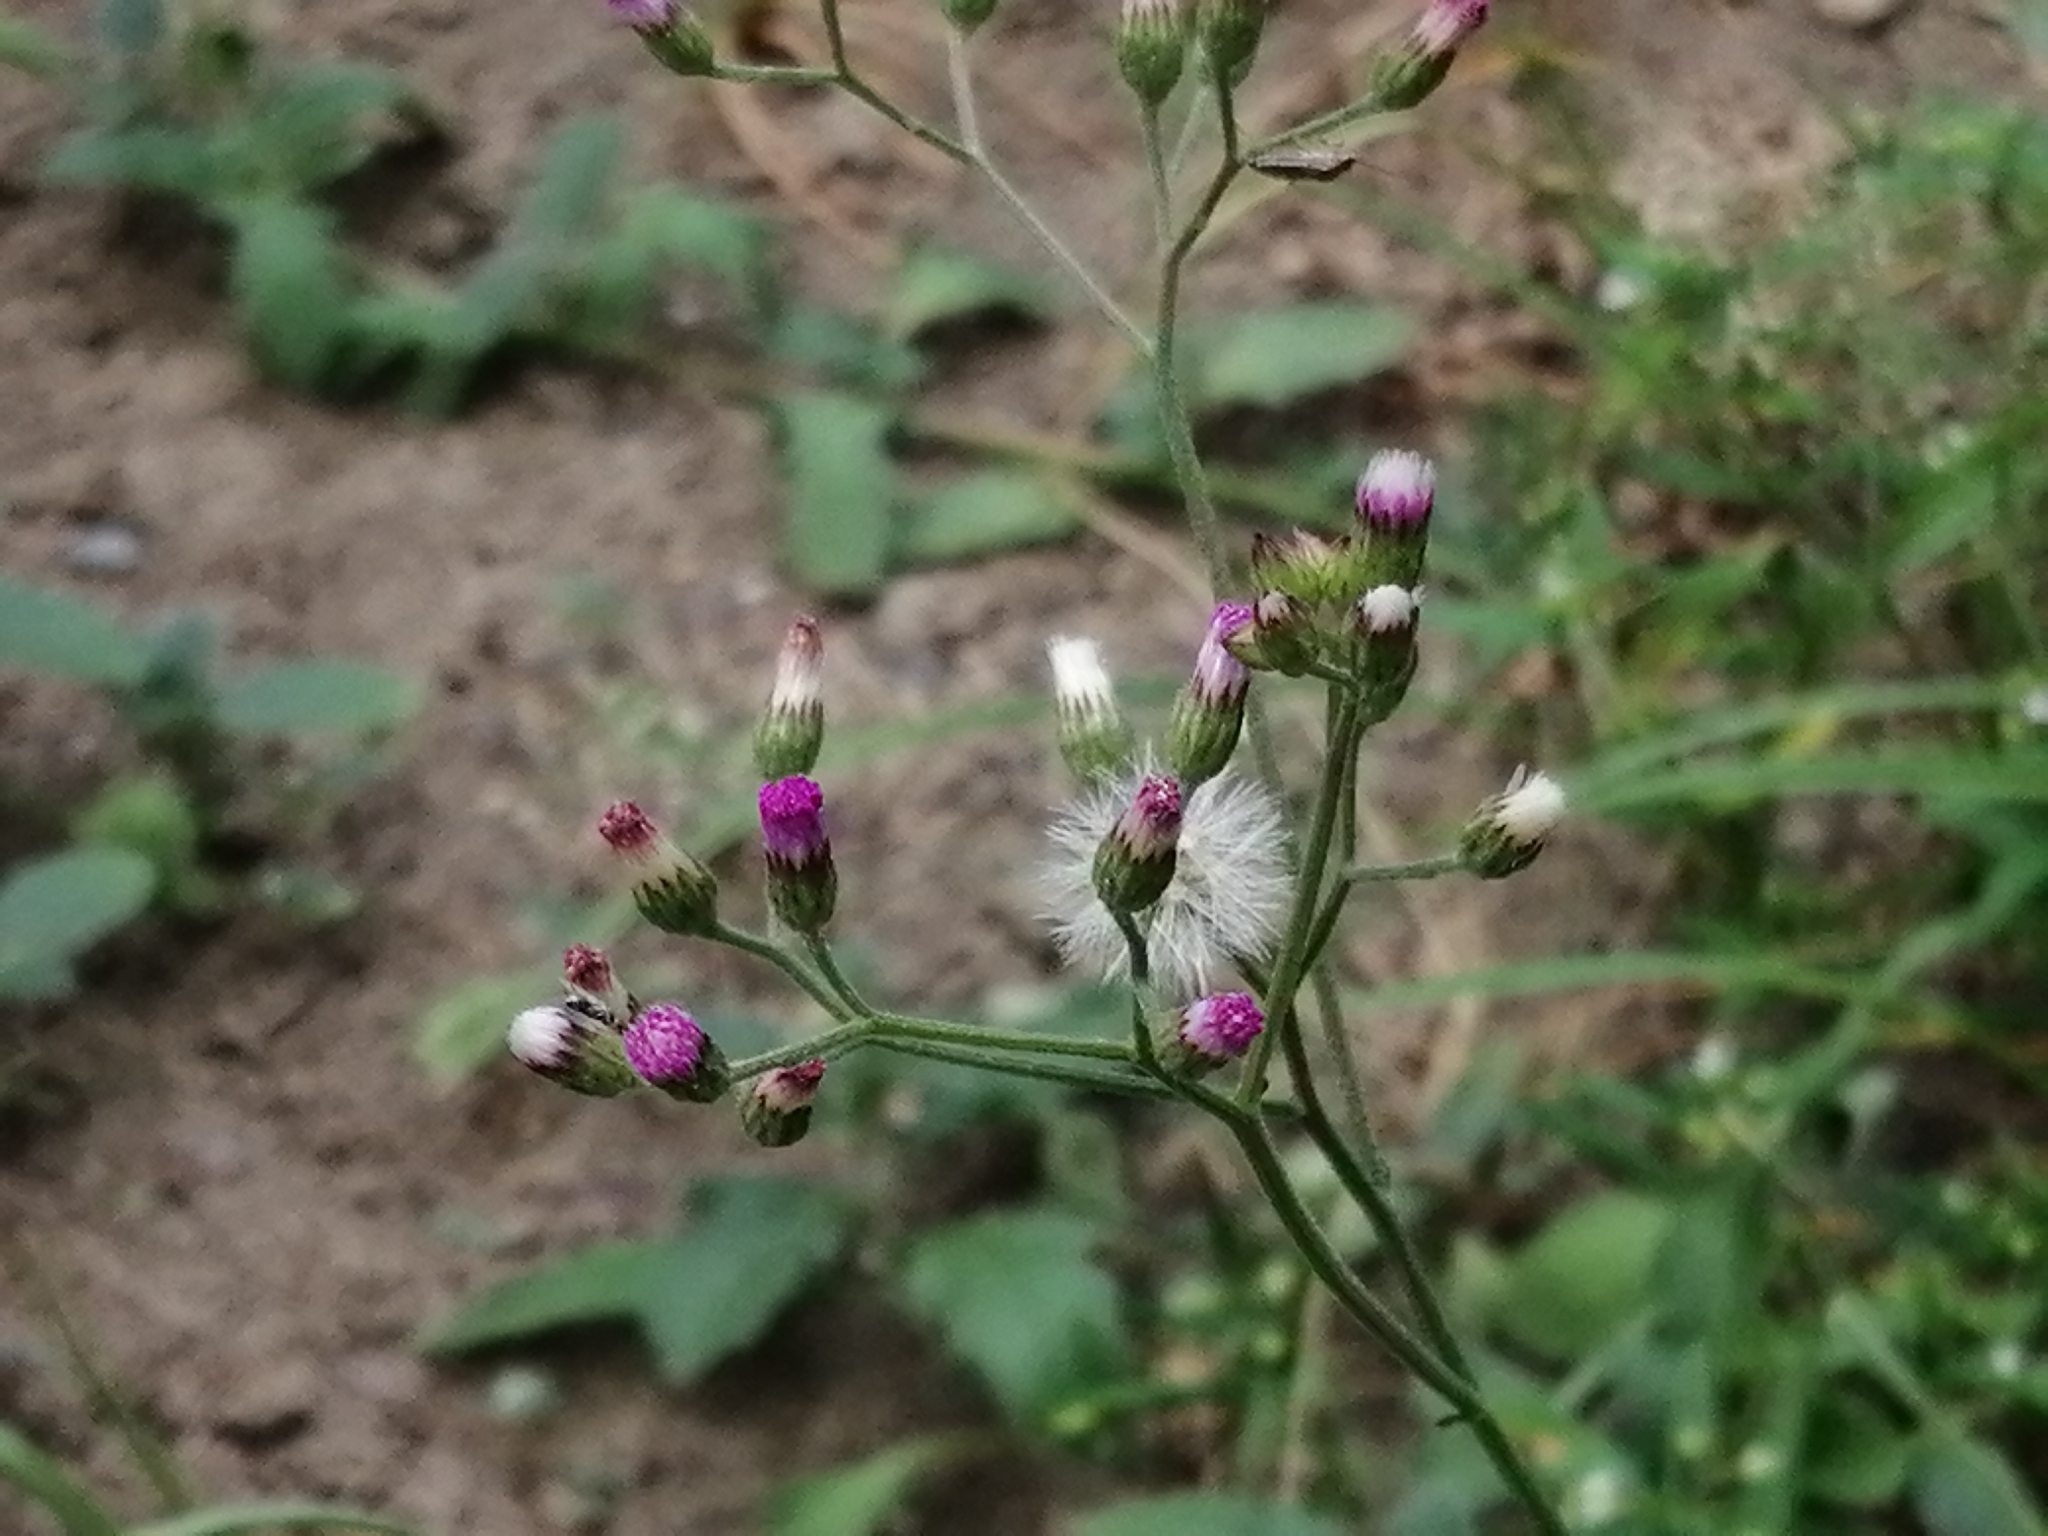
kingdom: Plantae
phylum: Tracheophyta
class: Magnoliopsida
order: Asterales
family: Asteraceae
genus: Cyanthillium
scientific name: Cyanthillium cinereum
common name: Little ironweed
